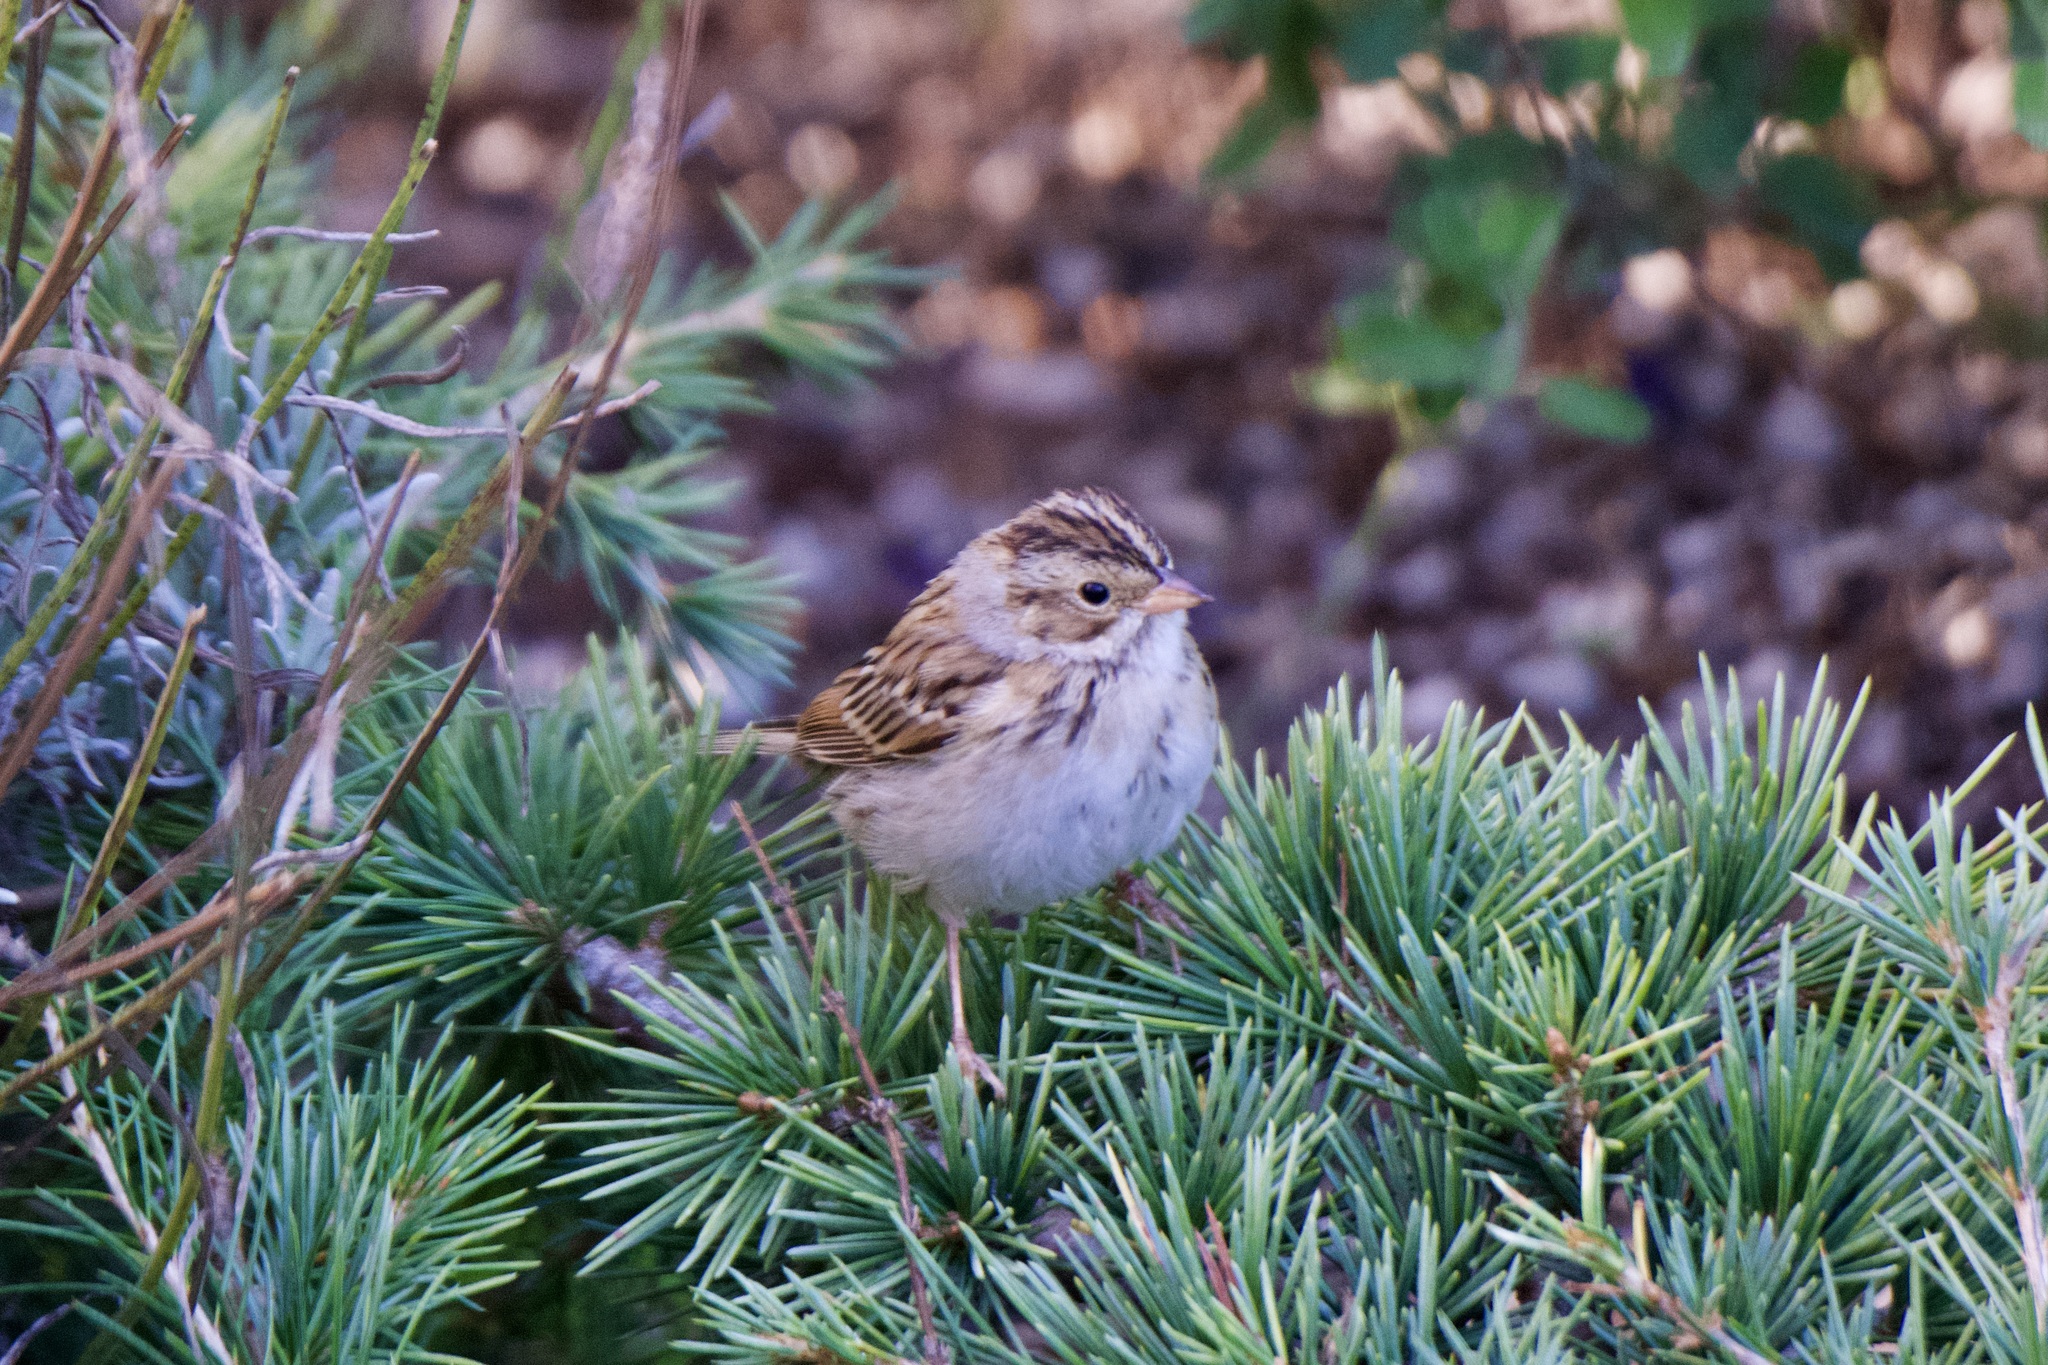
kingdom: Animalia
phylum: Chordata
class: Aves
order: Passeriformes
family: Passerellidae
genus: Spizella
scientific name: Spizella pallida
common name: Clay-colored sparrow
